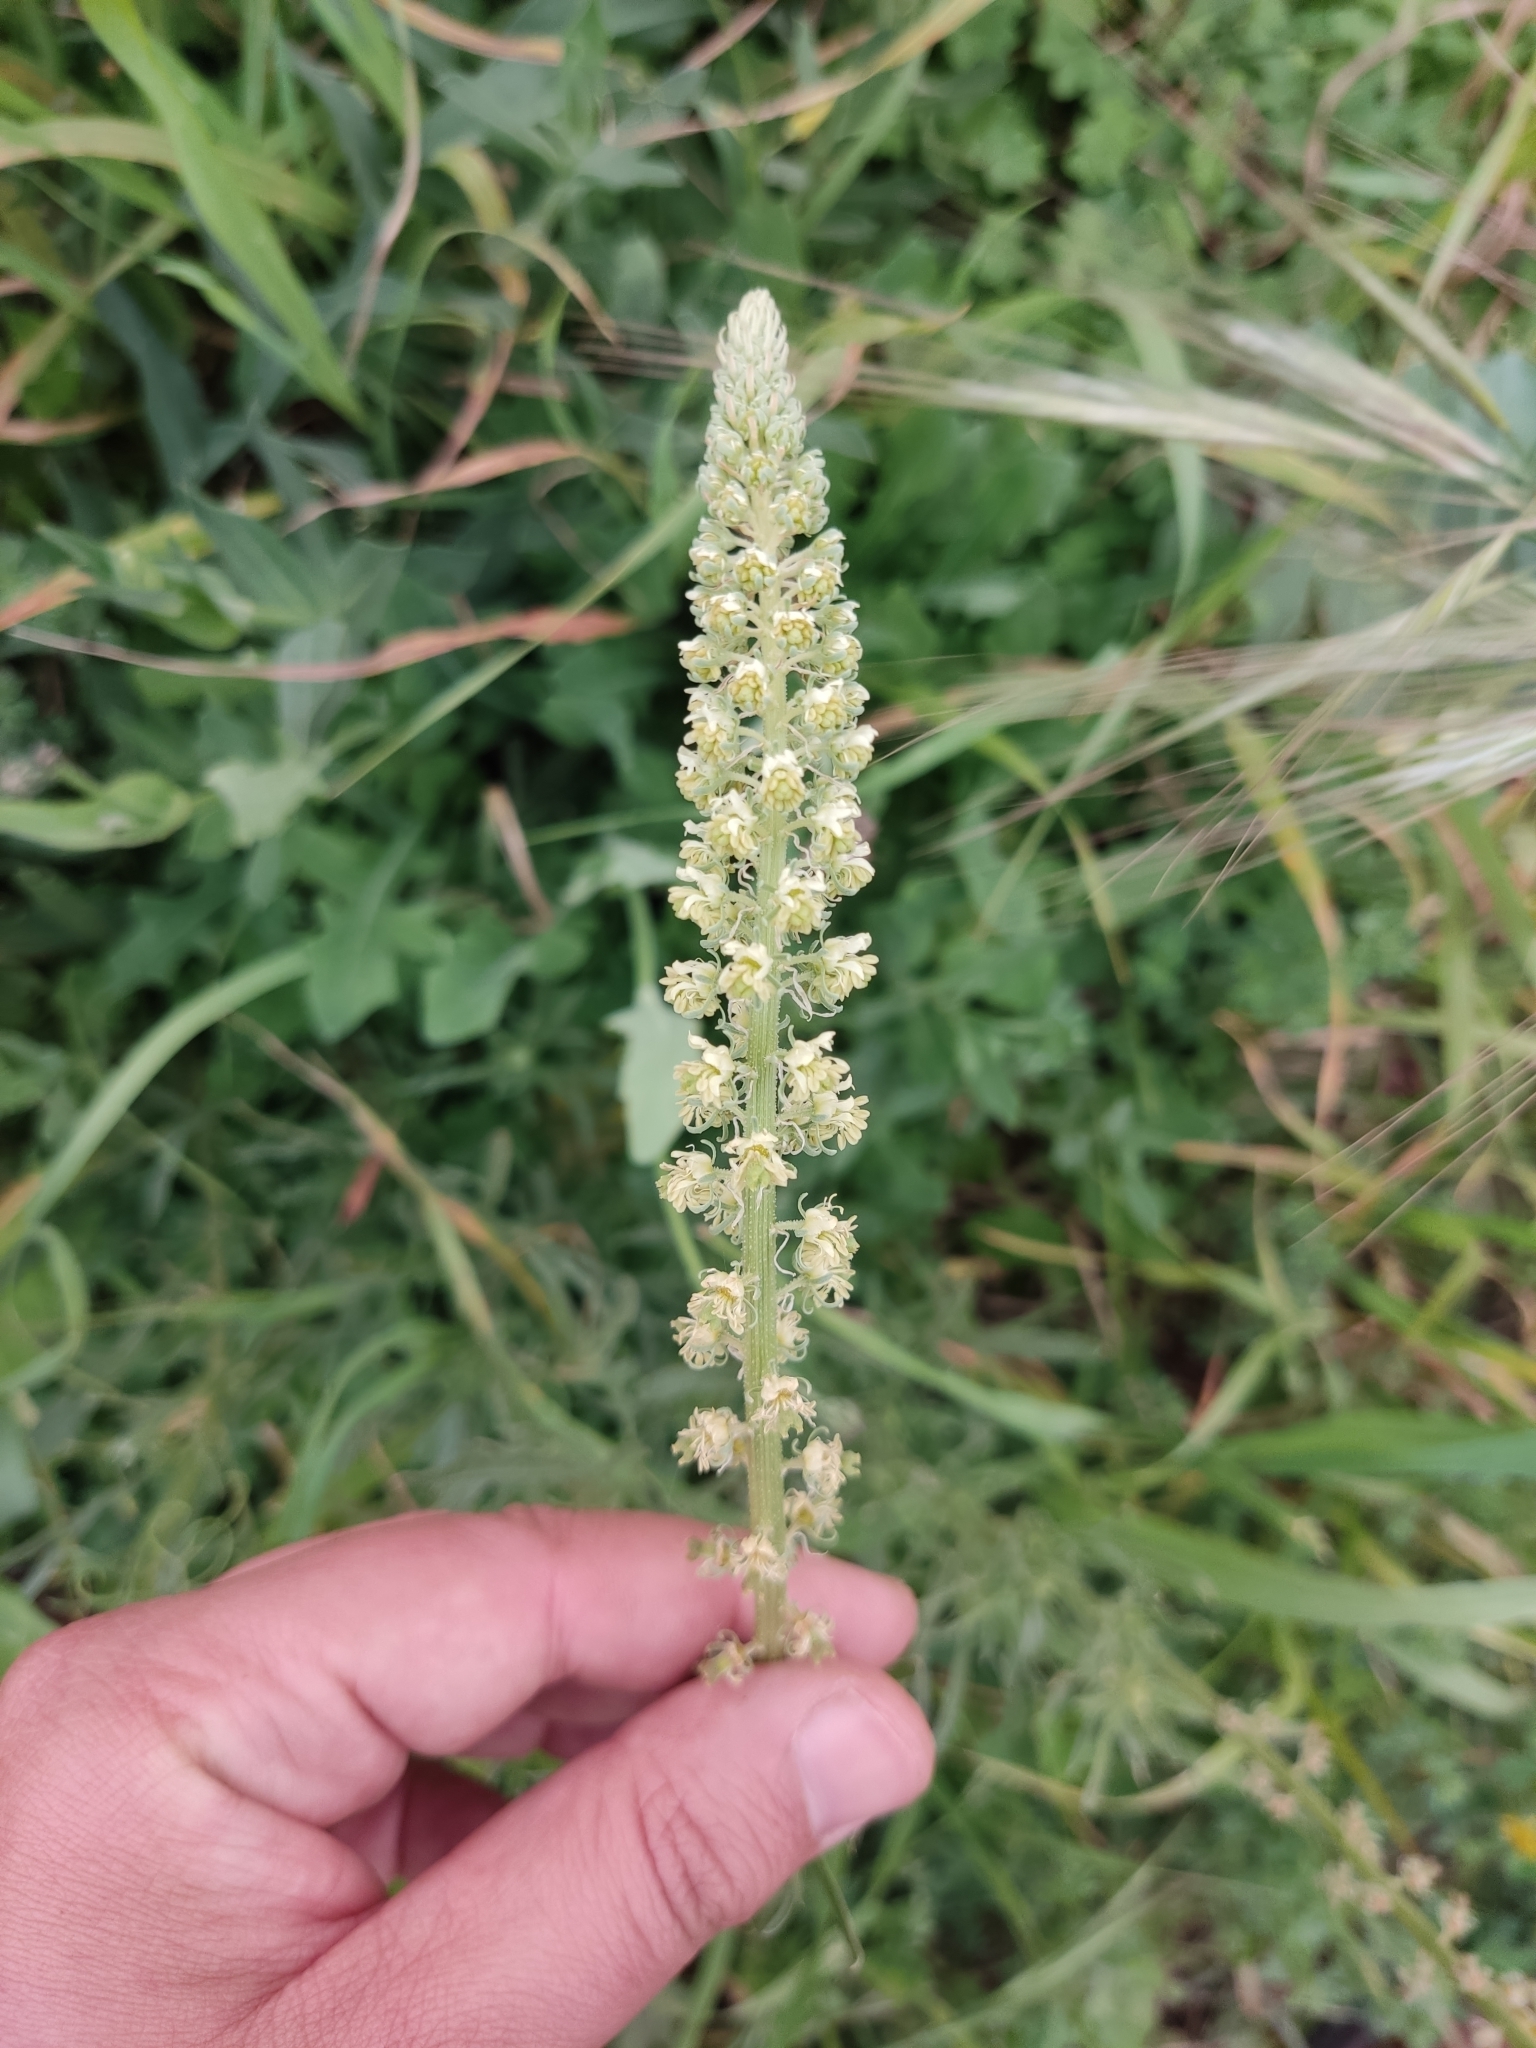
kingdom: Plantae
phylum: Tracheophyta
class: Magnoliopsida
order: Brassicales
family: Resedaceae
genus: Reseda
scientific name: Reseda luteola
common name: Weld
